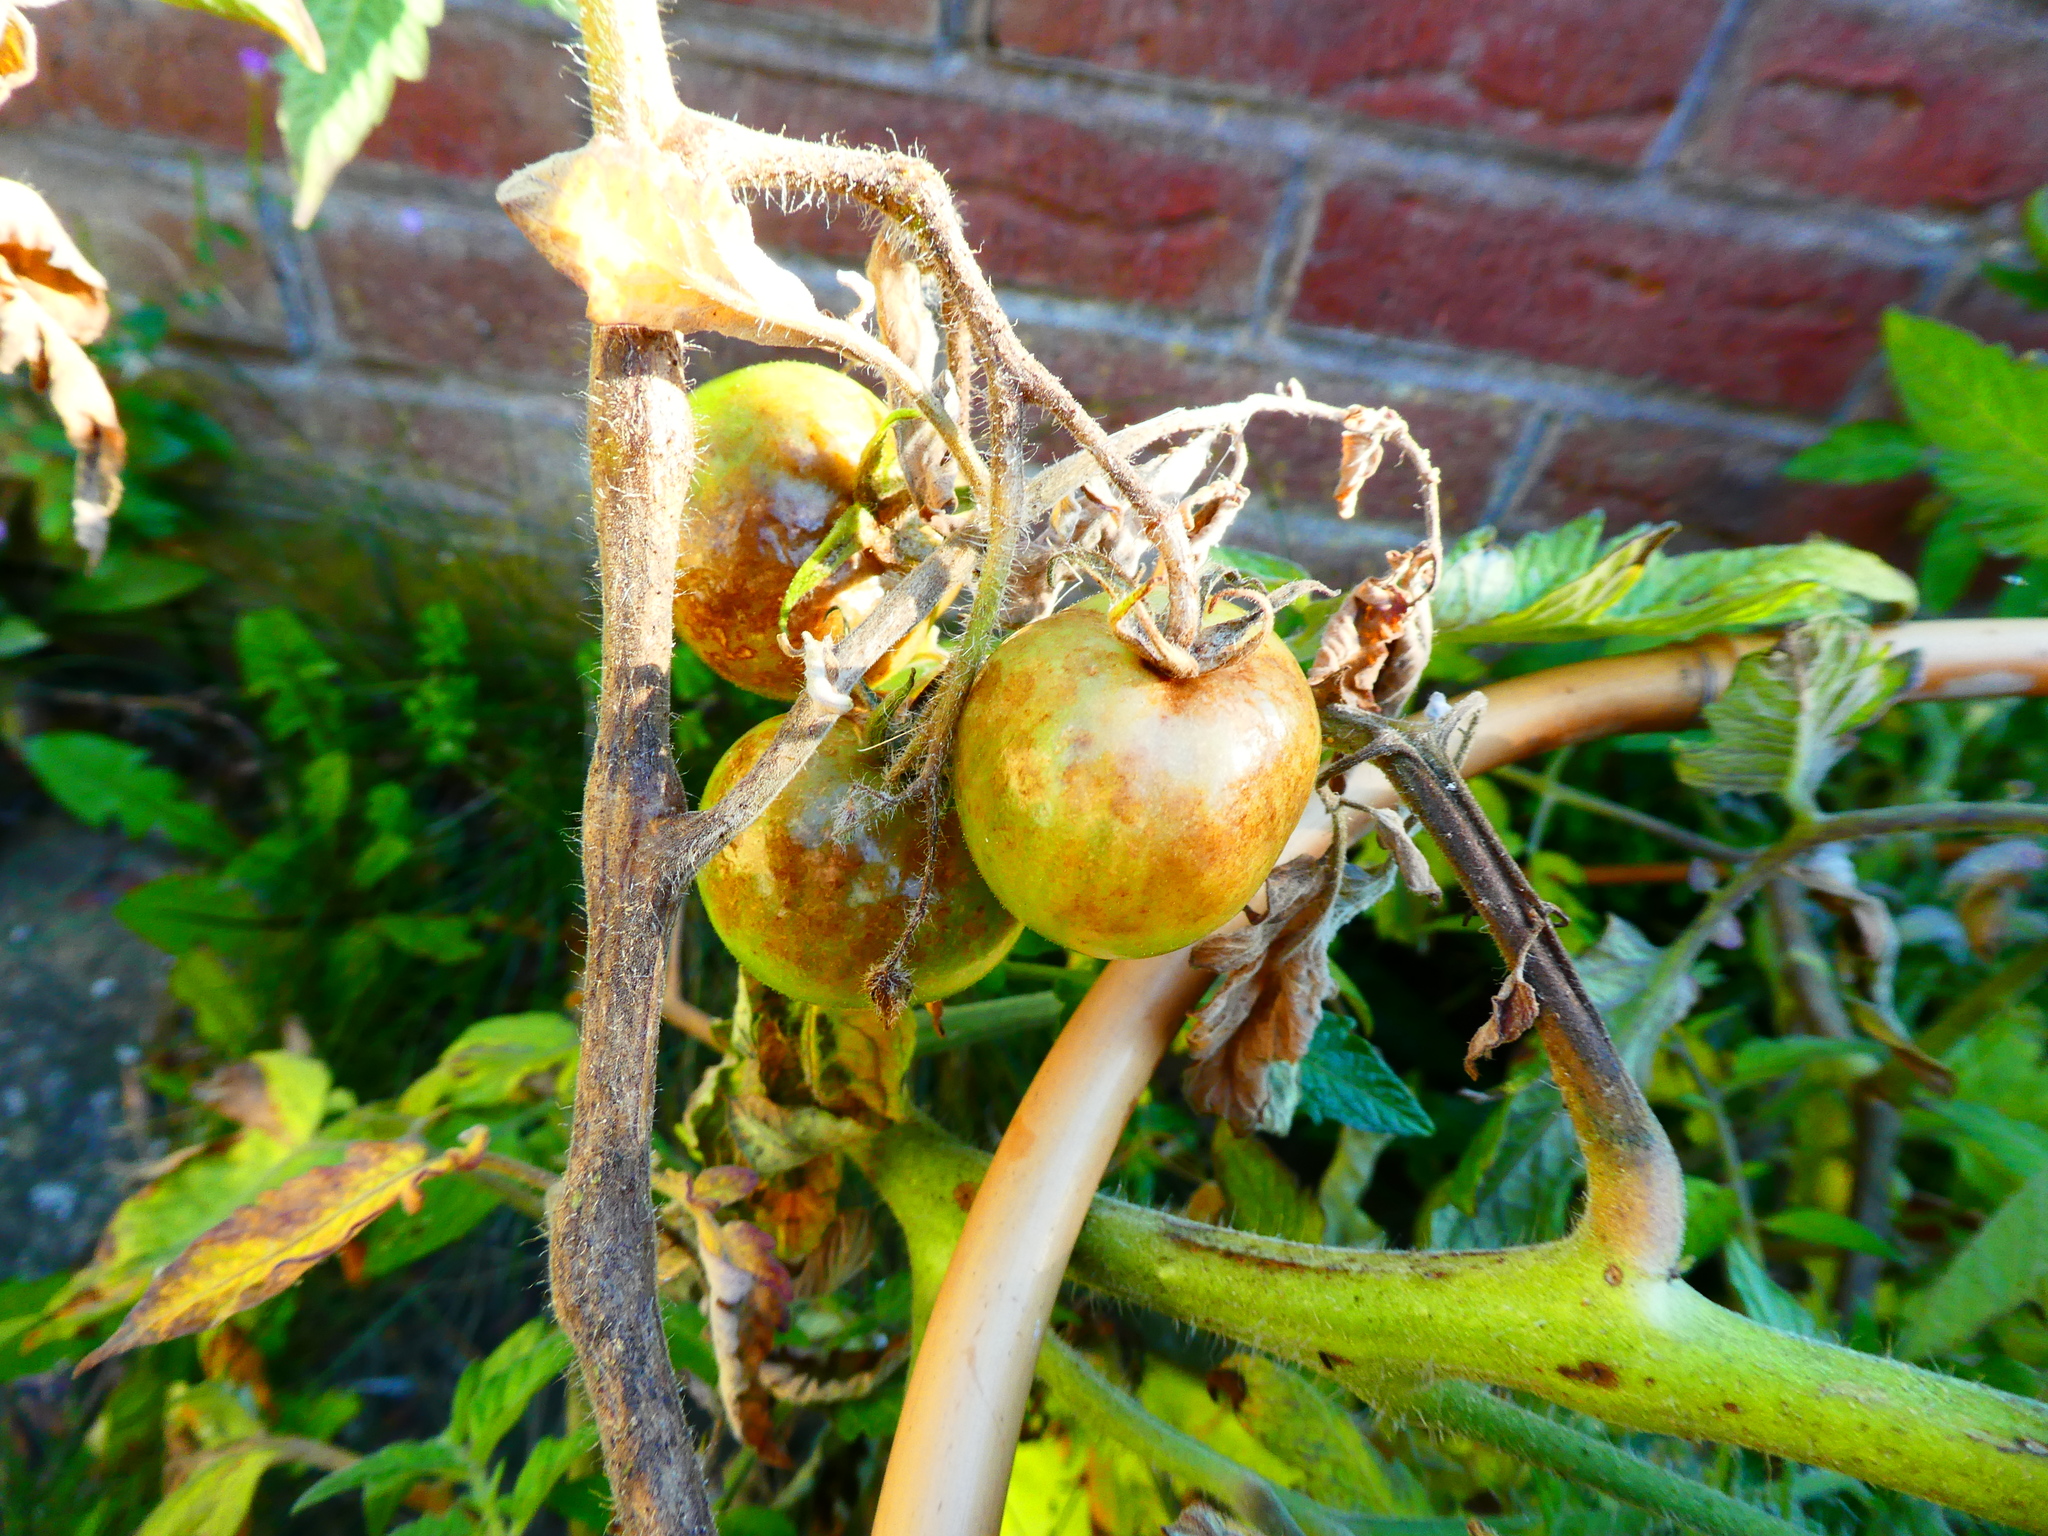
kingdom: Chromista
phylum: Oomycota
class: Peronosporea
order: Peronosporales
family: Peronosporaceae
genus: Phytophthora
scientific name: Phytophthora infestans
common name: Potato blight
